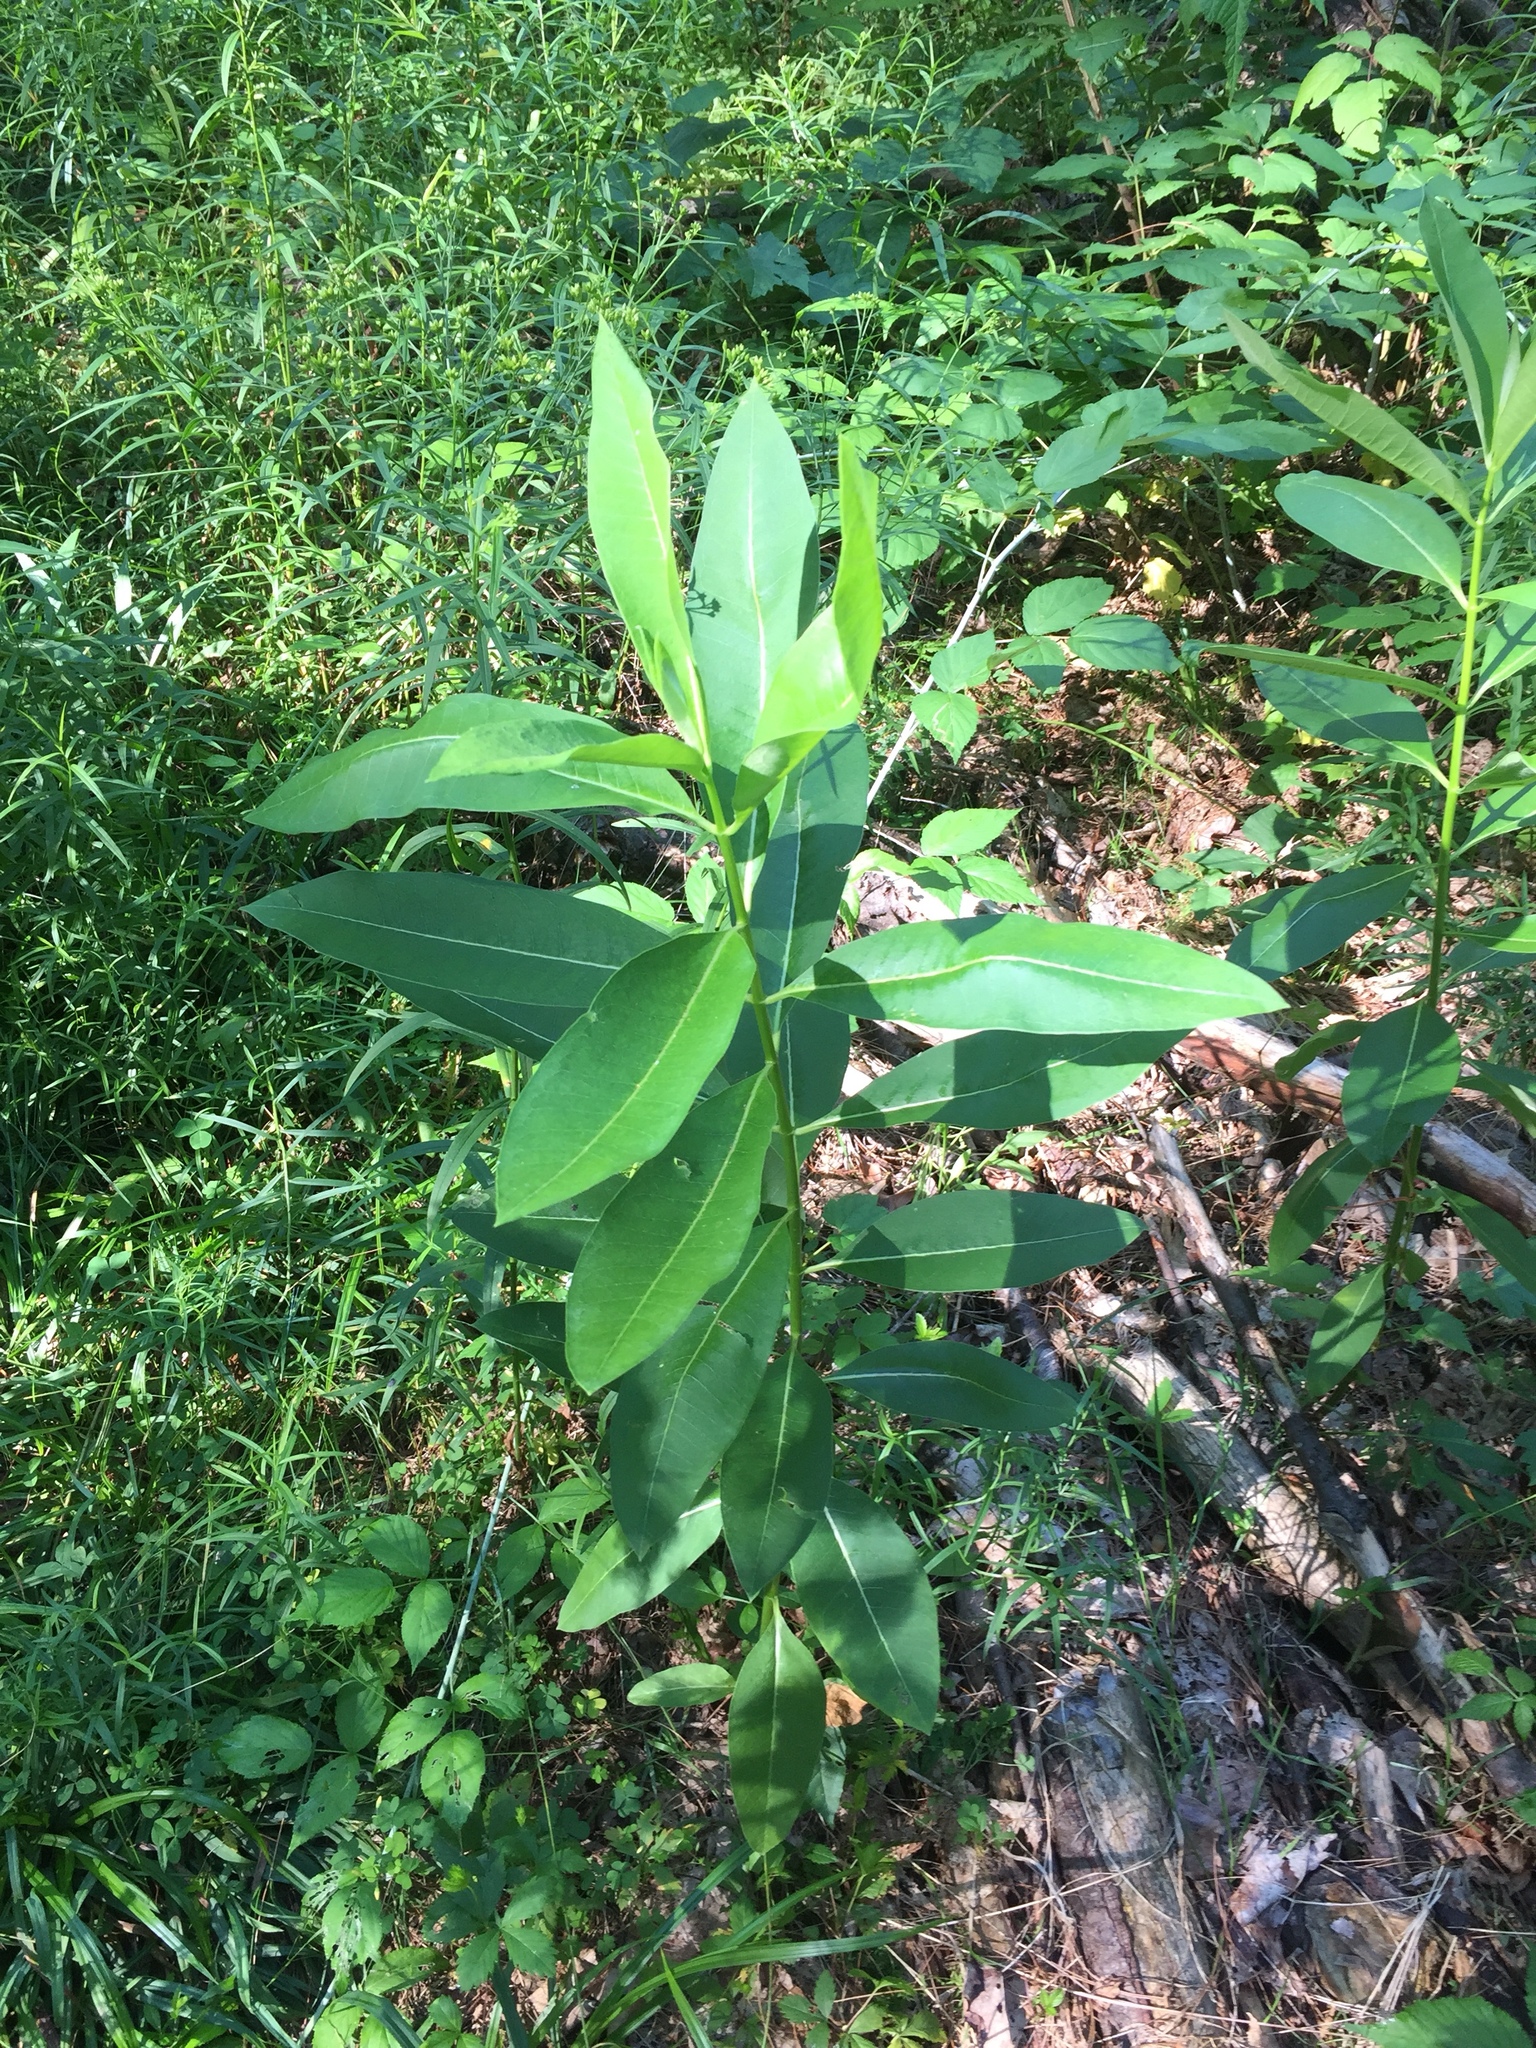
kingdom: Plantae
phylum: Tracheophyta
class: Magnoliopsida
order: Gentianales
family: Apocynaceae
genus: Asclepias
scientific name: Asclepias syriaca
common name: Common milkweed
